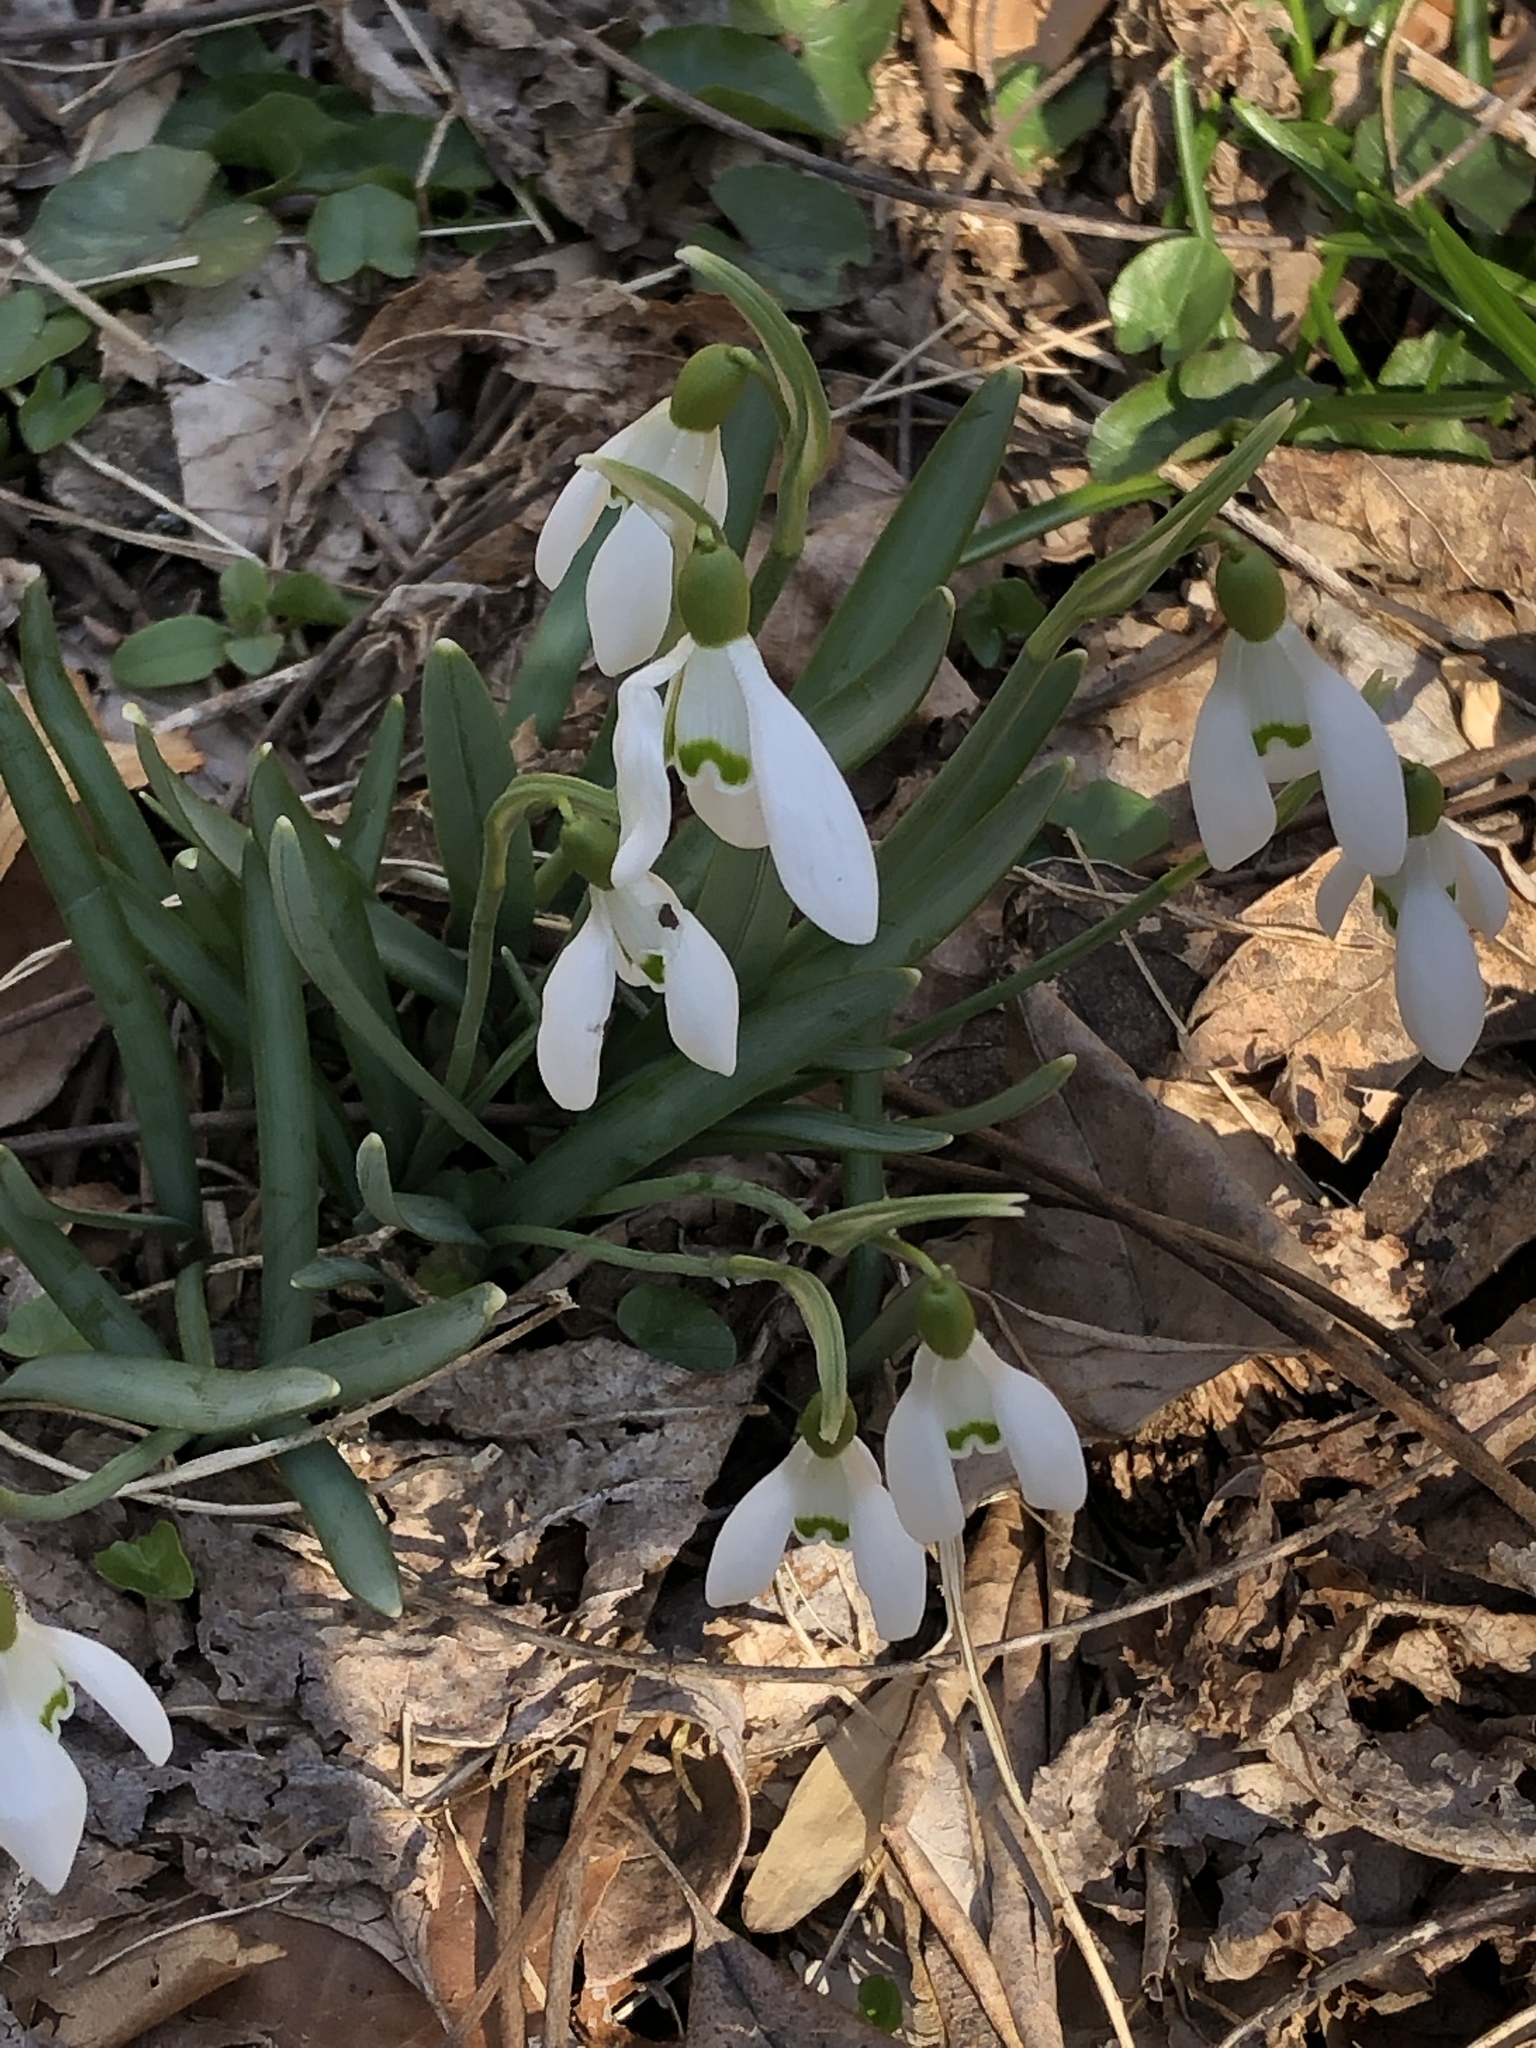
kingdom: Plantae
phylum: Tracheophyta
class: Liliopsida
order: Asparagales
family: Amaryllidaceae
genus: Galanthus
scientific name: Galanthus nivalis
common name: Snowdrop
